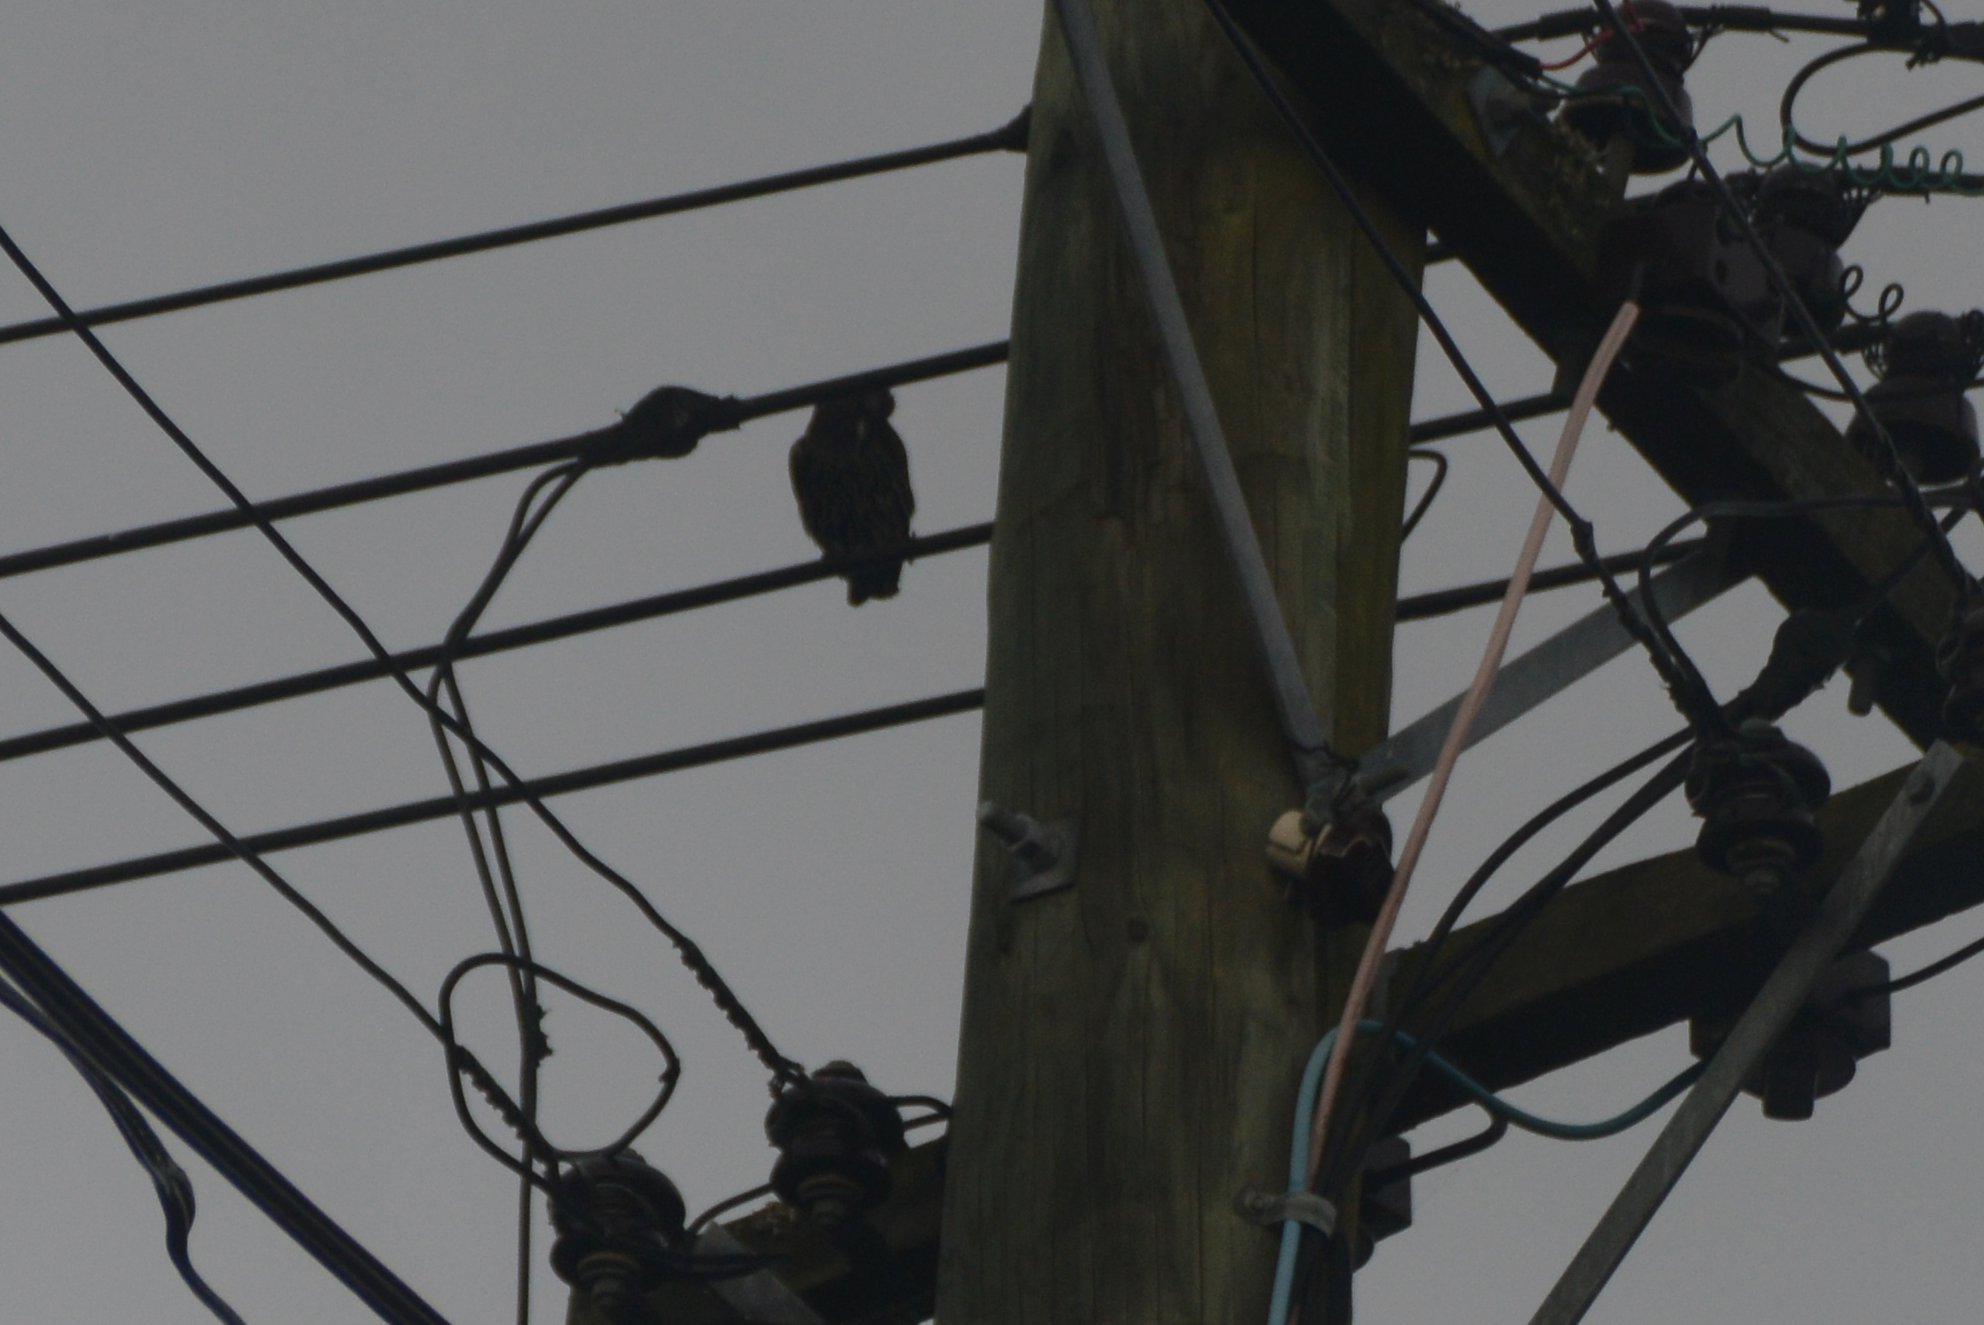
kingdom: Animalia
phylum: Chordata
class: Aves
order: Passeriformes
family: Sturnidae
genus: Sturnus
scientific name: Sturnus vulgaris
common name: Common starling
